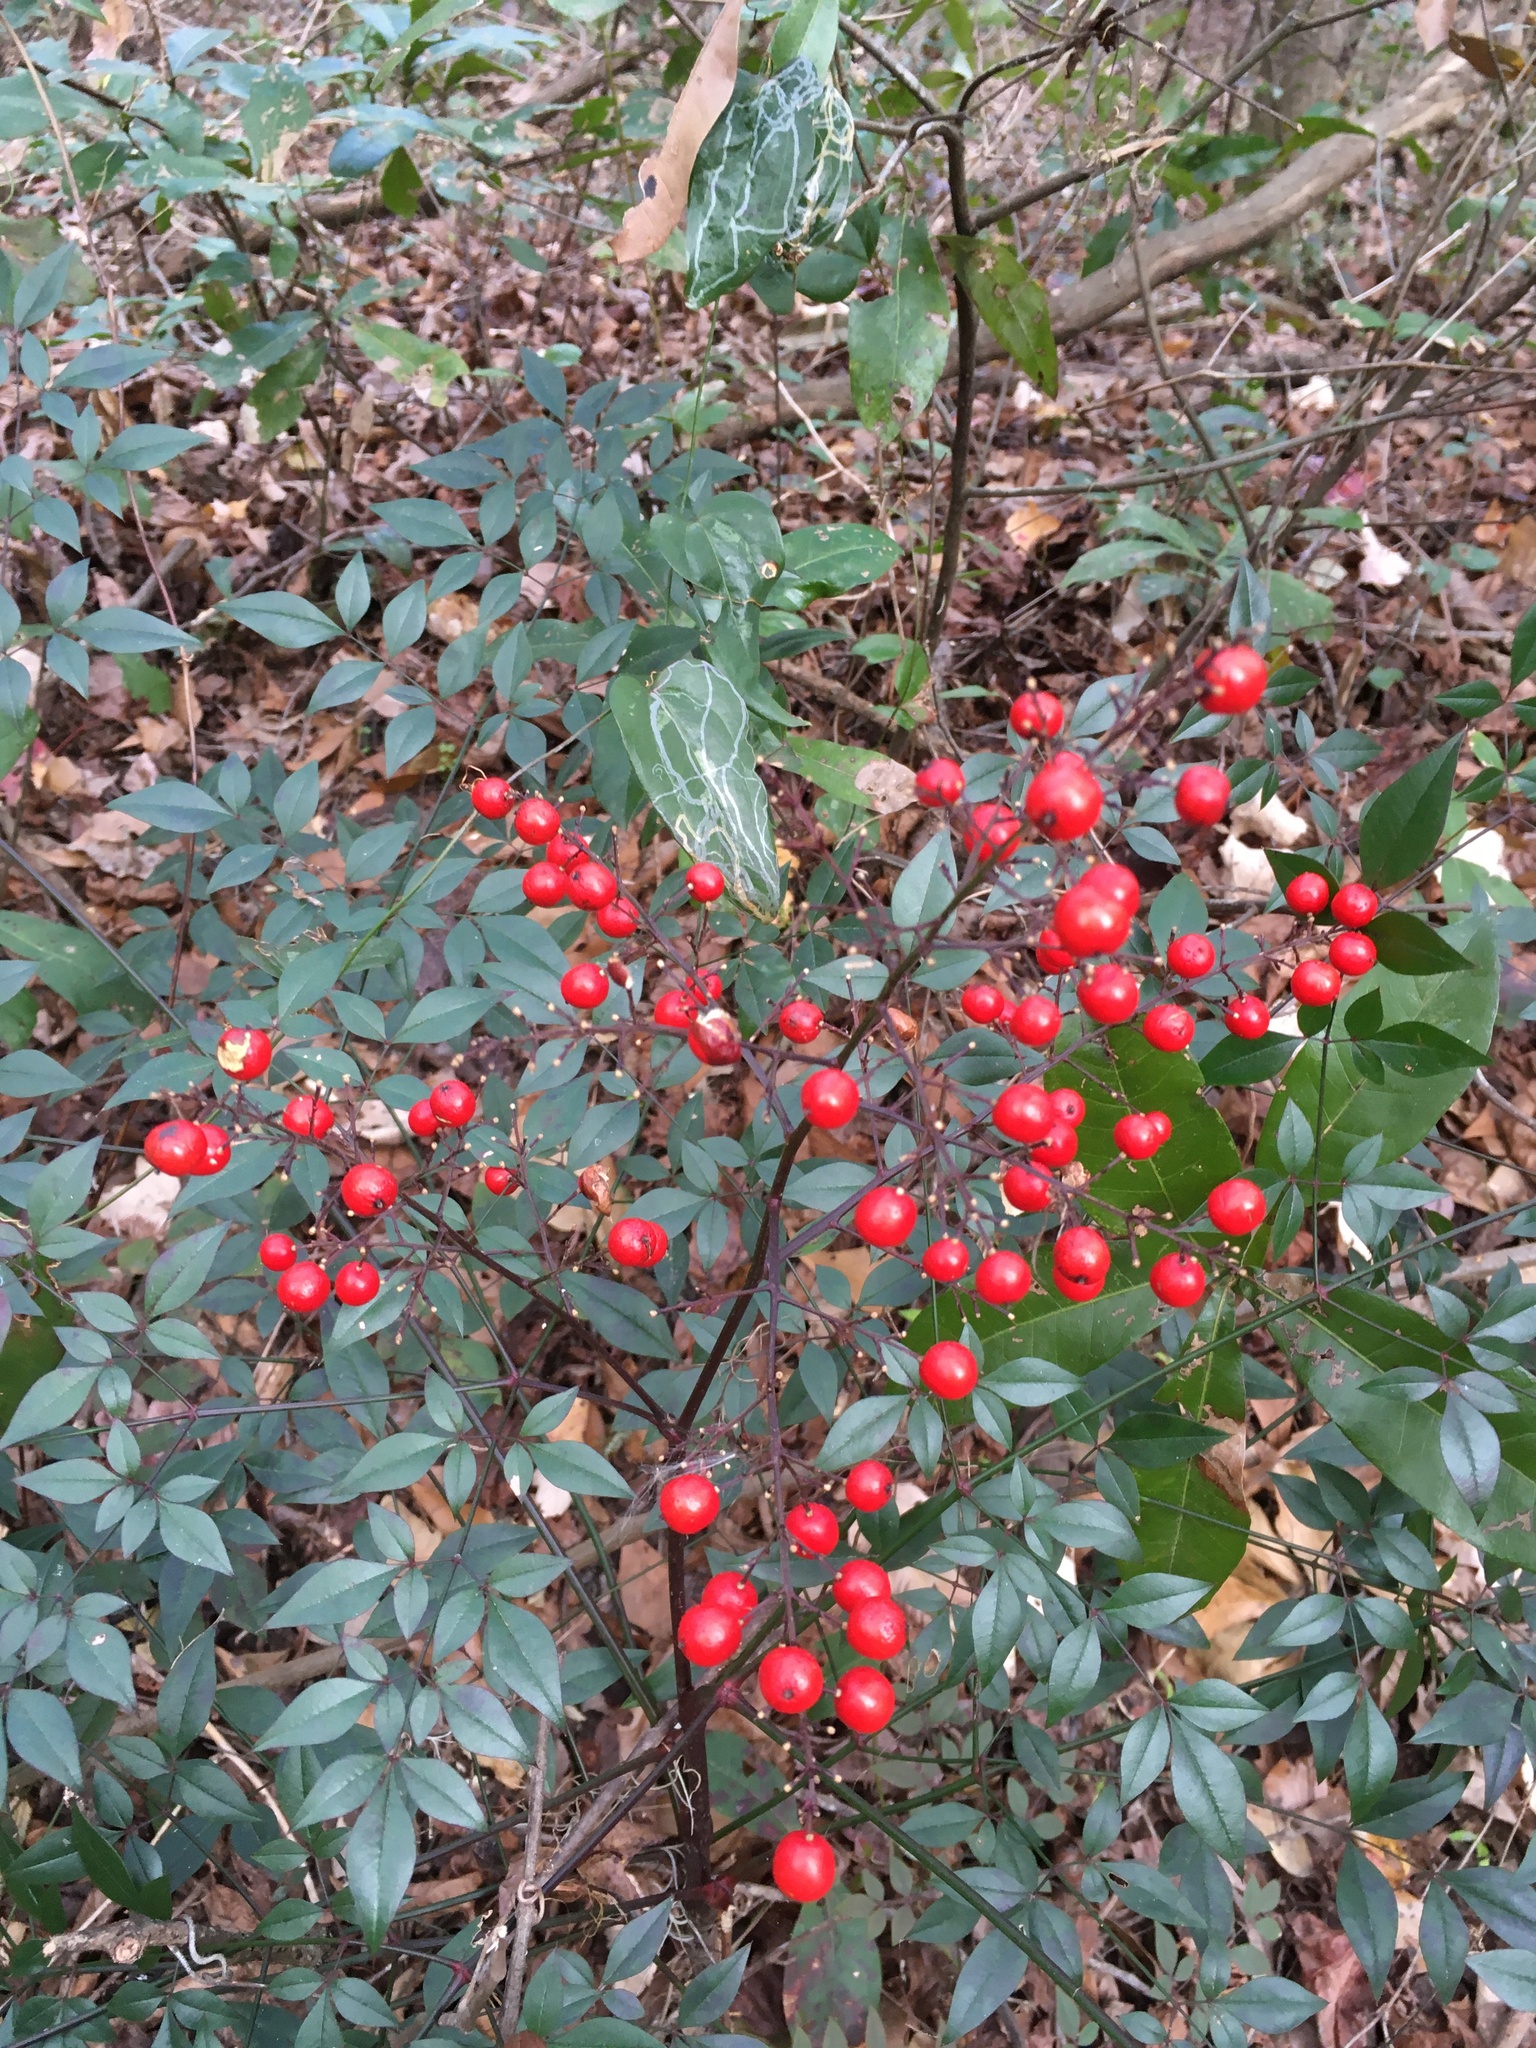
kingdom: Plantae
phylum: Tracheophyta
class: Magnoliopsida
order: Ranunculales
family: Berberidaceae
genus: Nandina
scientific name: Nandina domestica
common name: Sacred bamboo
